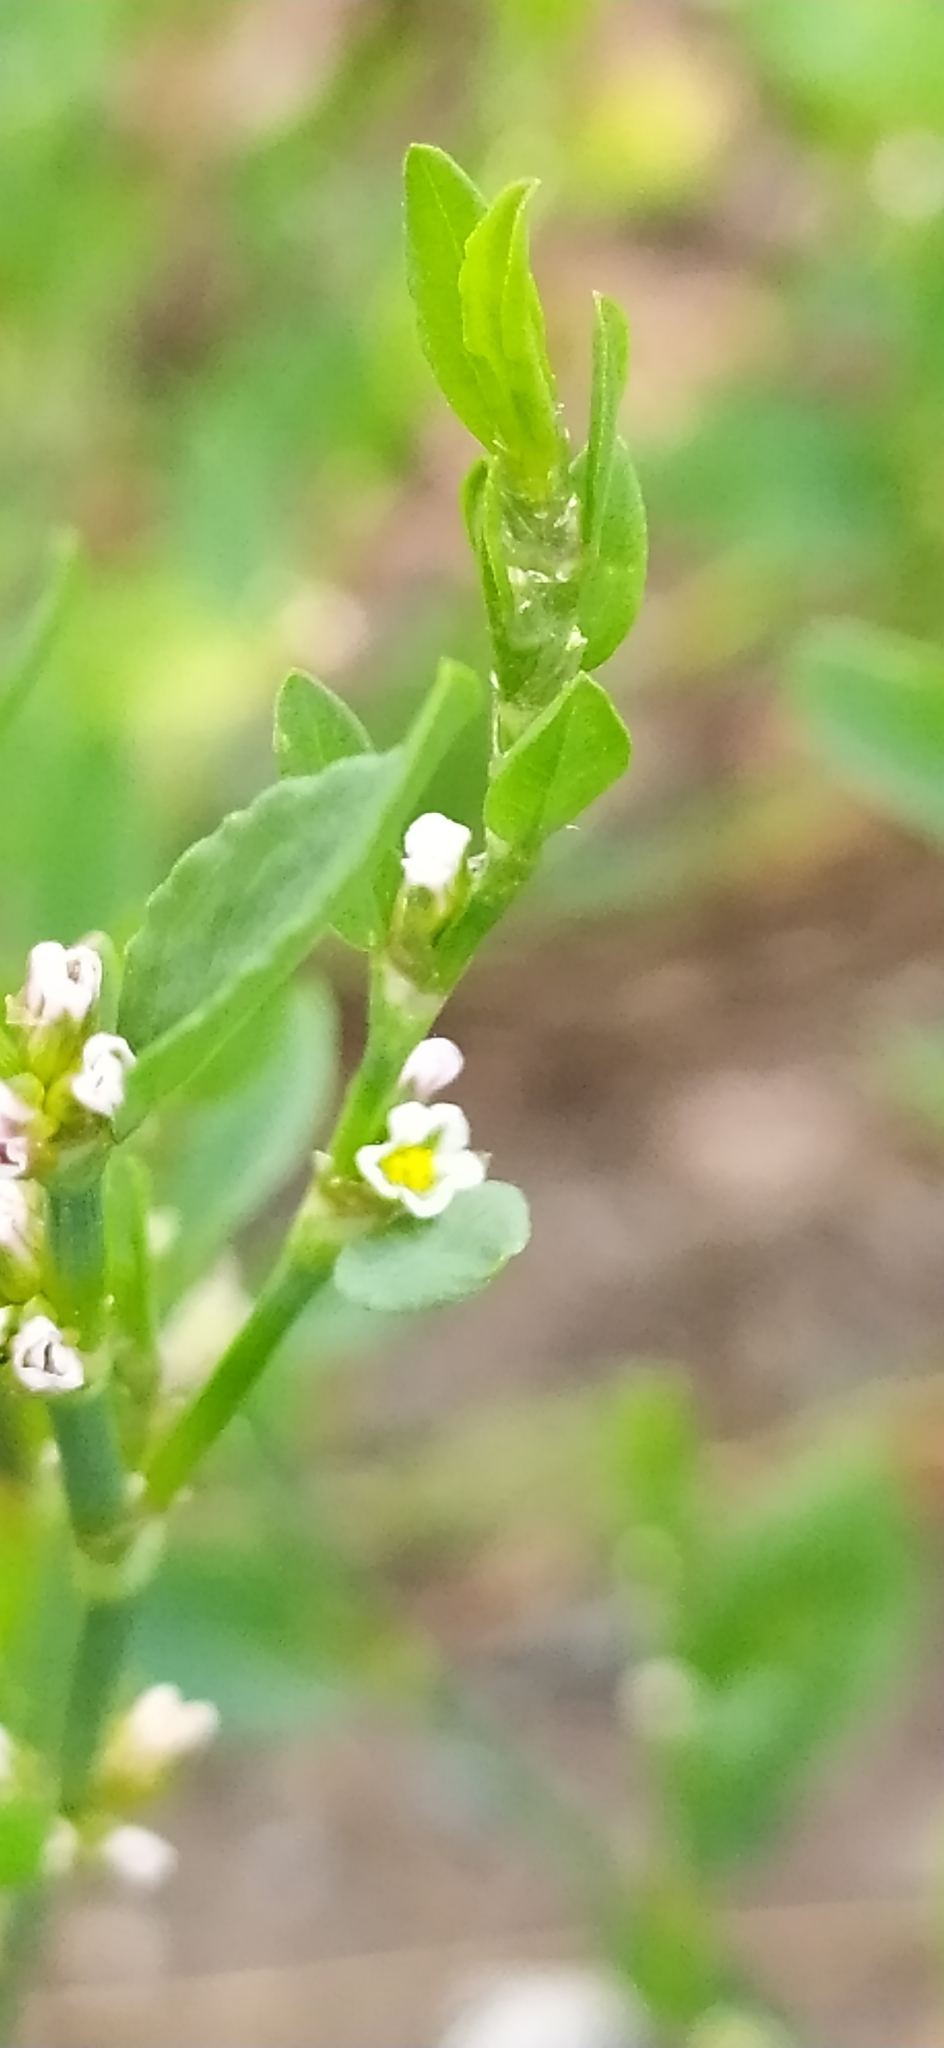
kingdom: Plantae
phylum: Tracheophyta
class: Magnoliopsida
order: Caryophyllales
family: Polygonaceae
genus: Polygonum
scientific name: Polygonum
